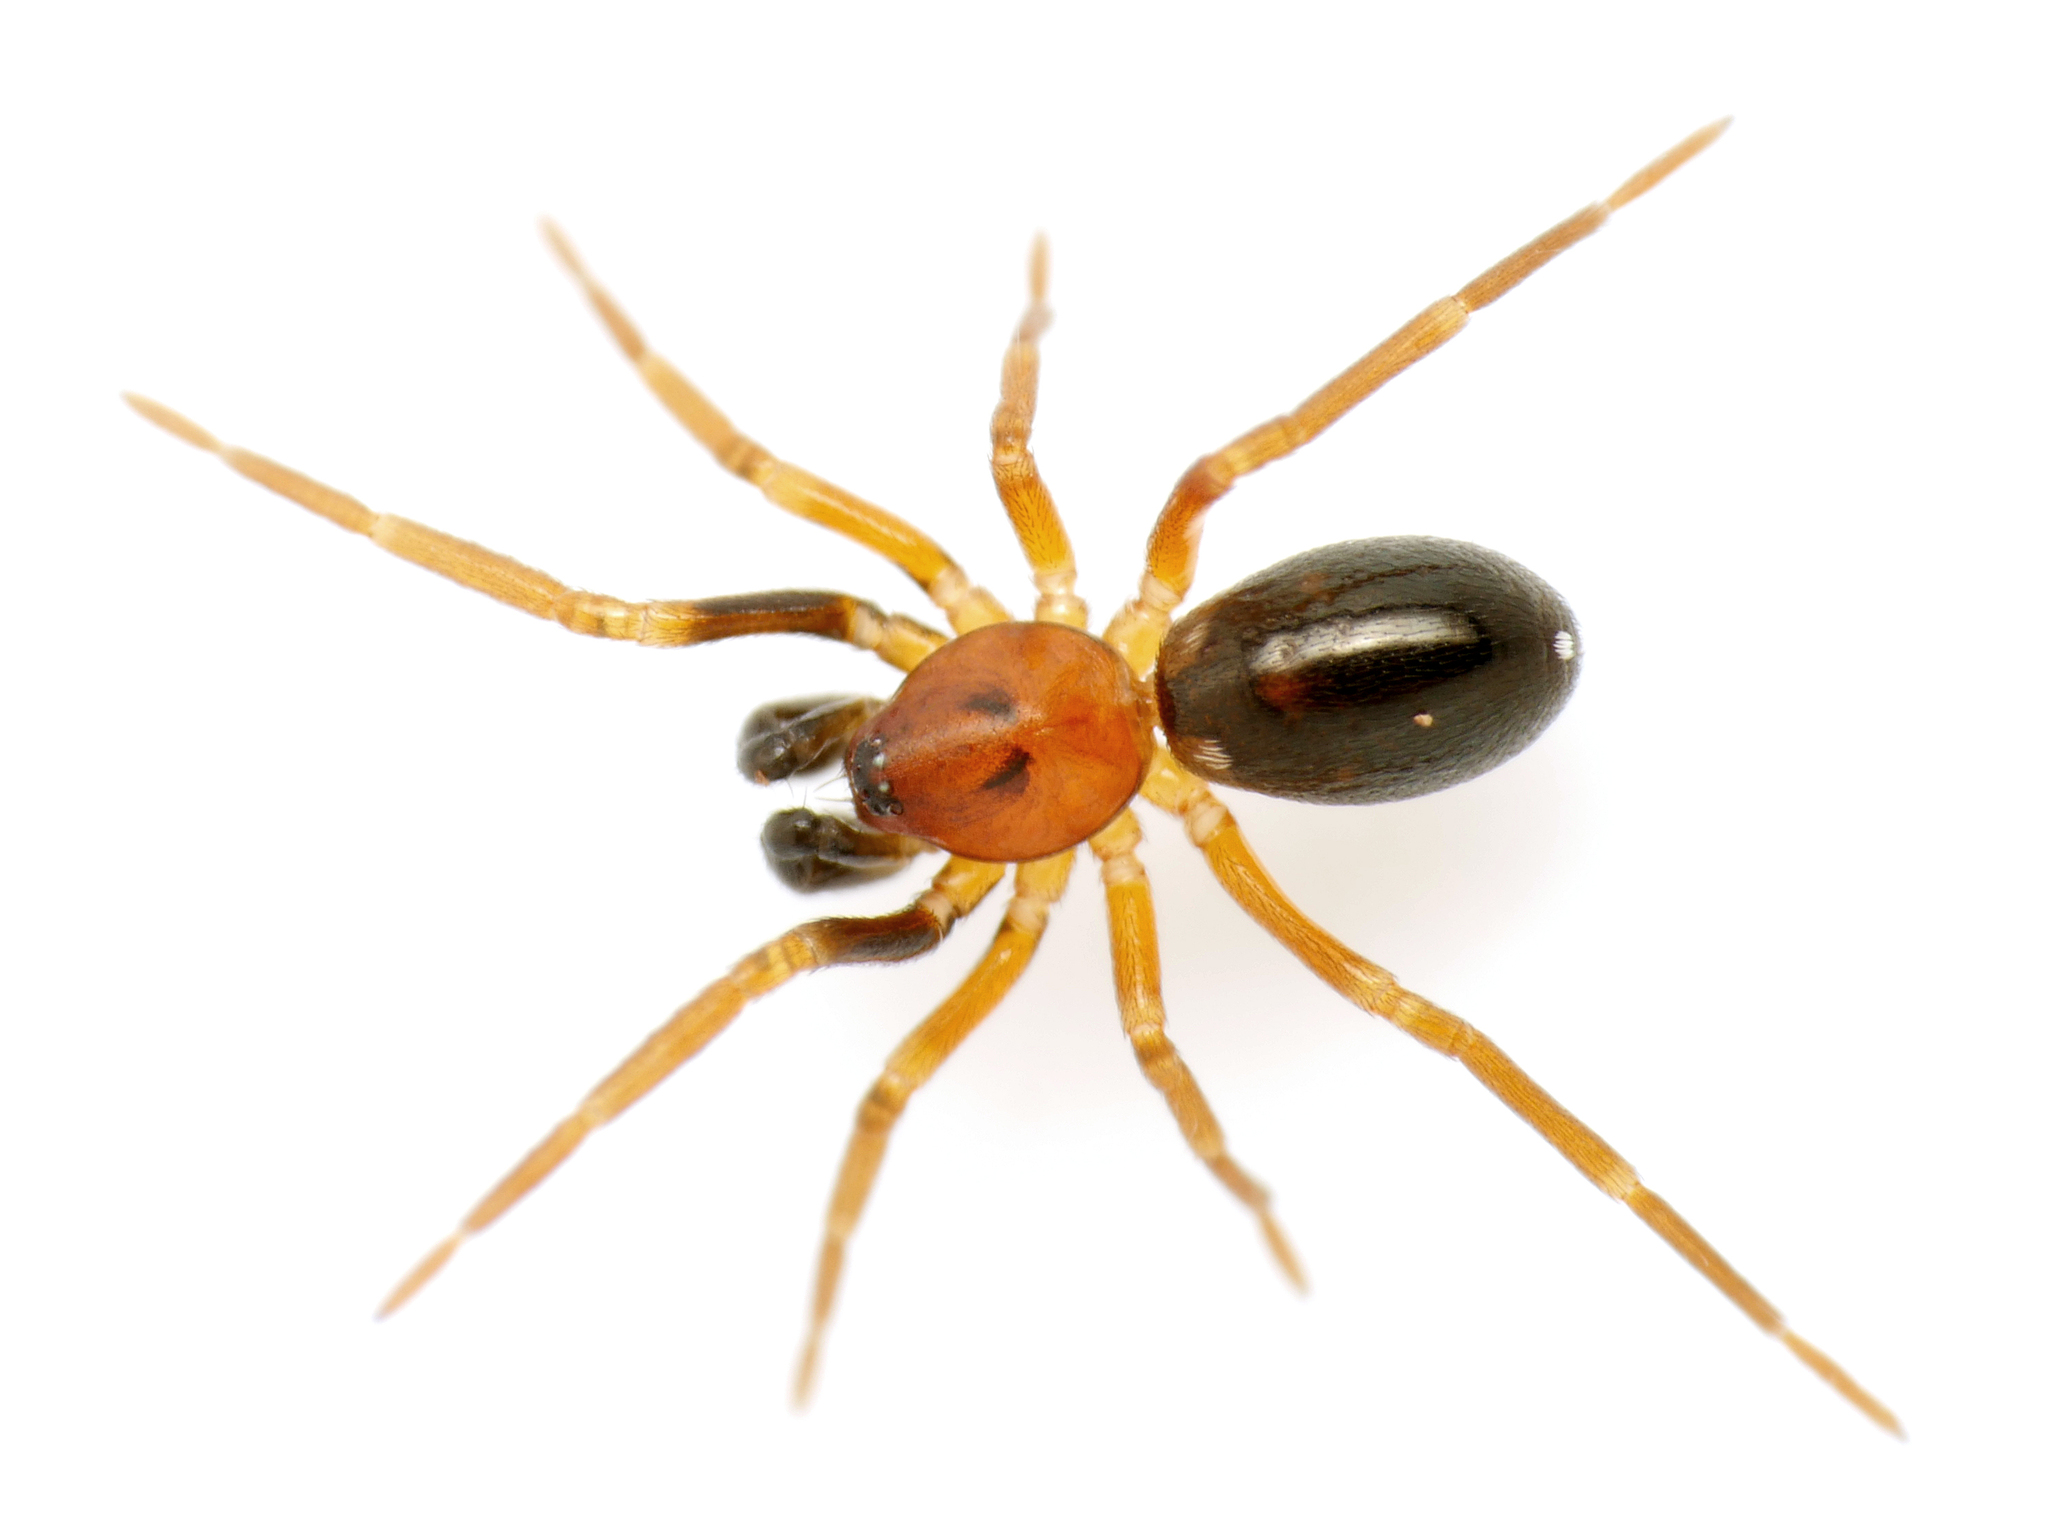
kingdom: Animalia
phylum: Arthropoda
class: Arachnida
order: Araneae
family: Phrurolithidae
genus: Phrurolithus
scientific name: Phrurolithus minimus
